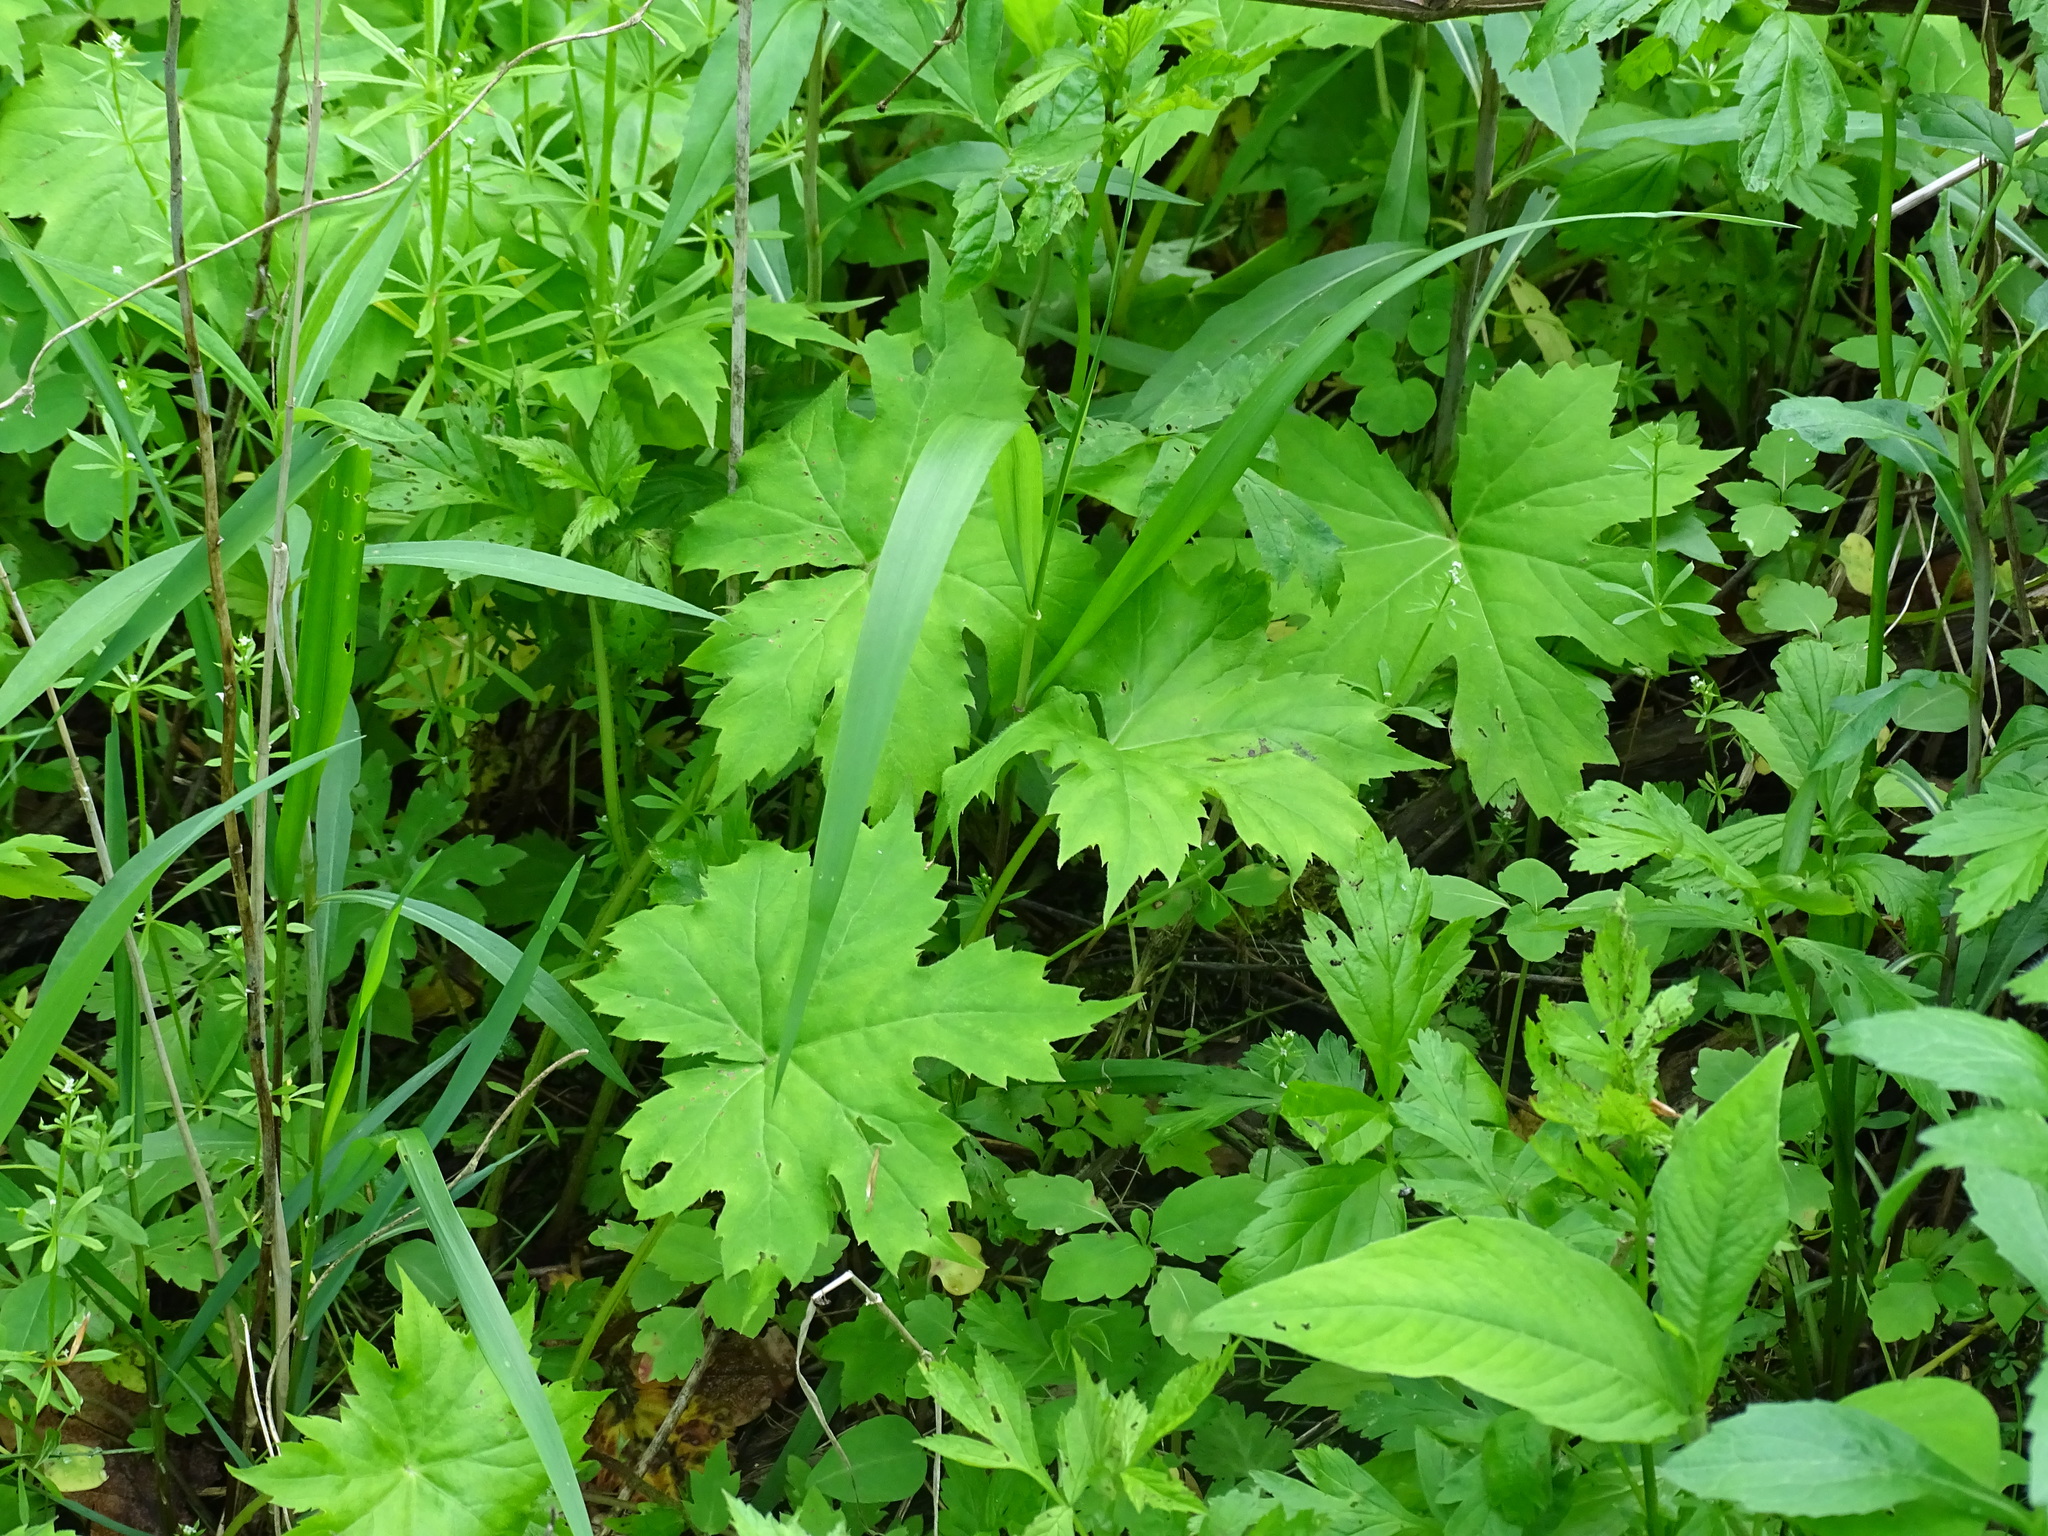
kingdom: Plantae
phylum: Tracheophyta
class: Magnoliopsida
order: Boraginales
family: Hydrophyllaceae
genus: Hydrophyllum
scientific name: Hydrophyllum canadense
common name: Canada waterleaf
